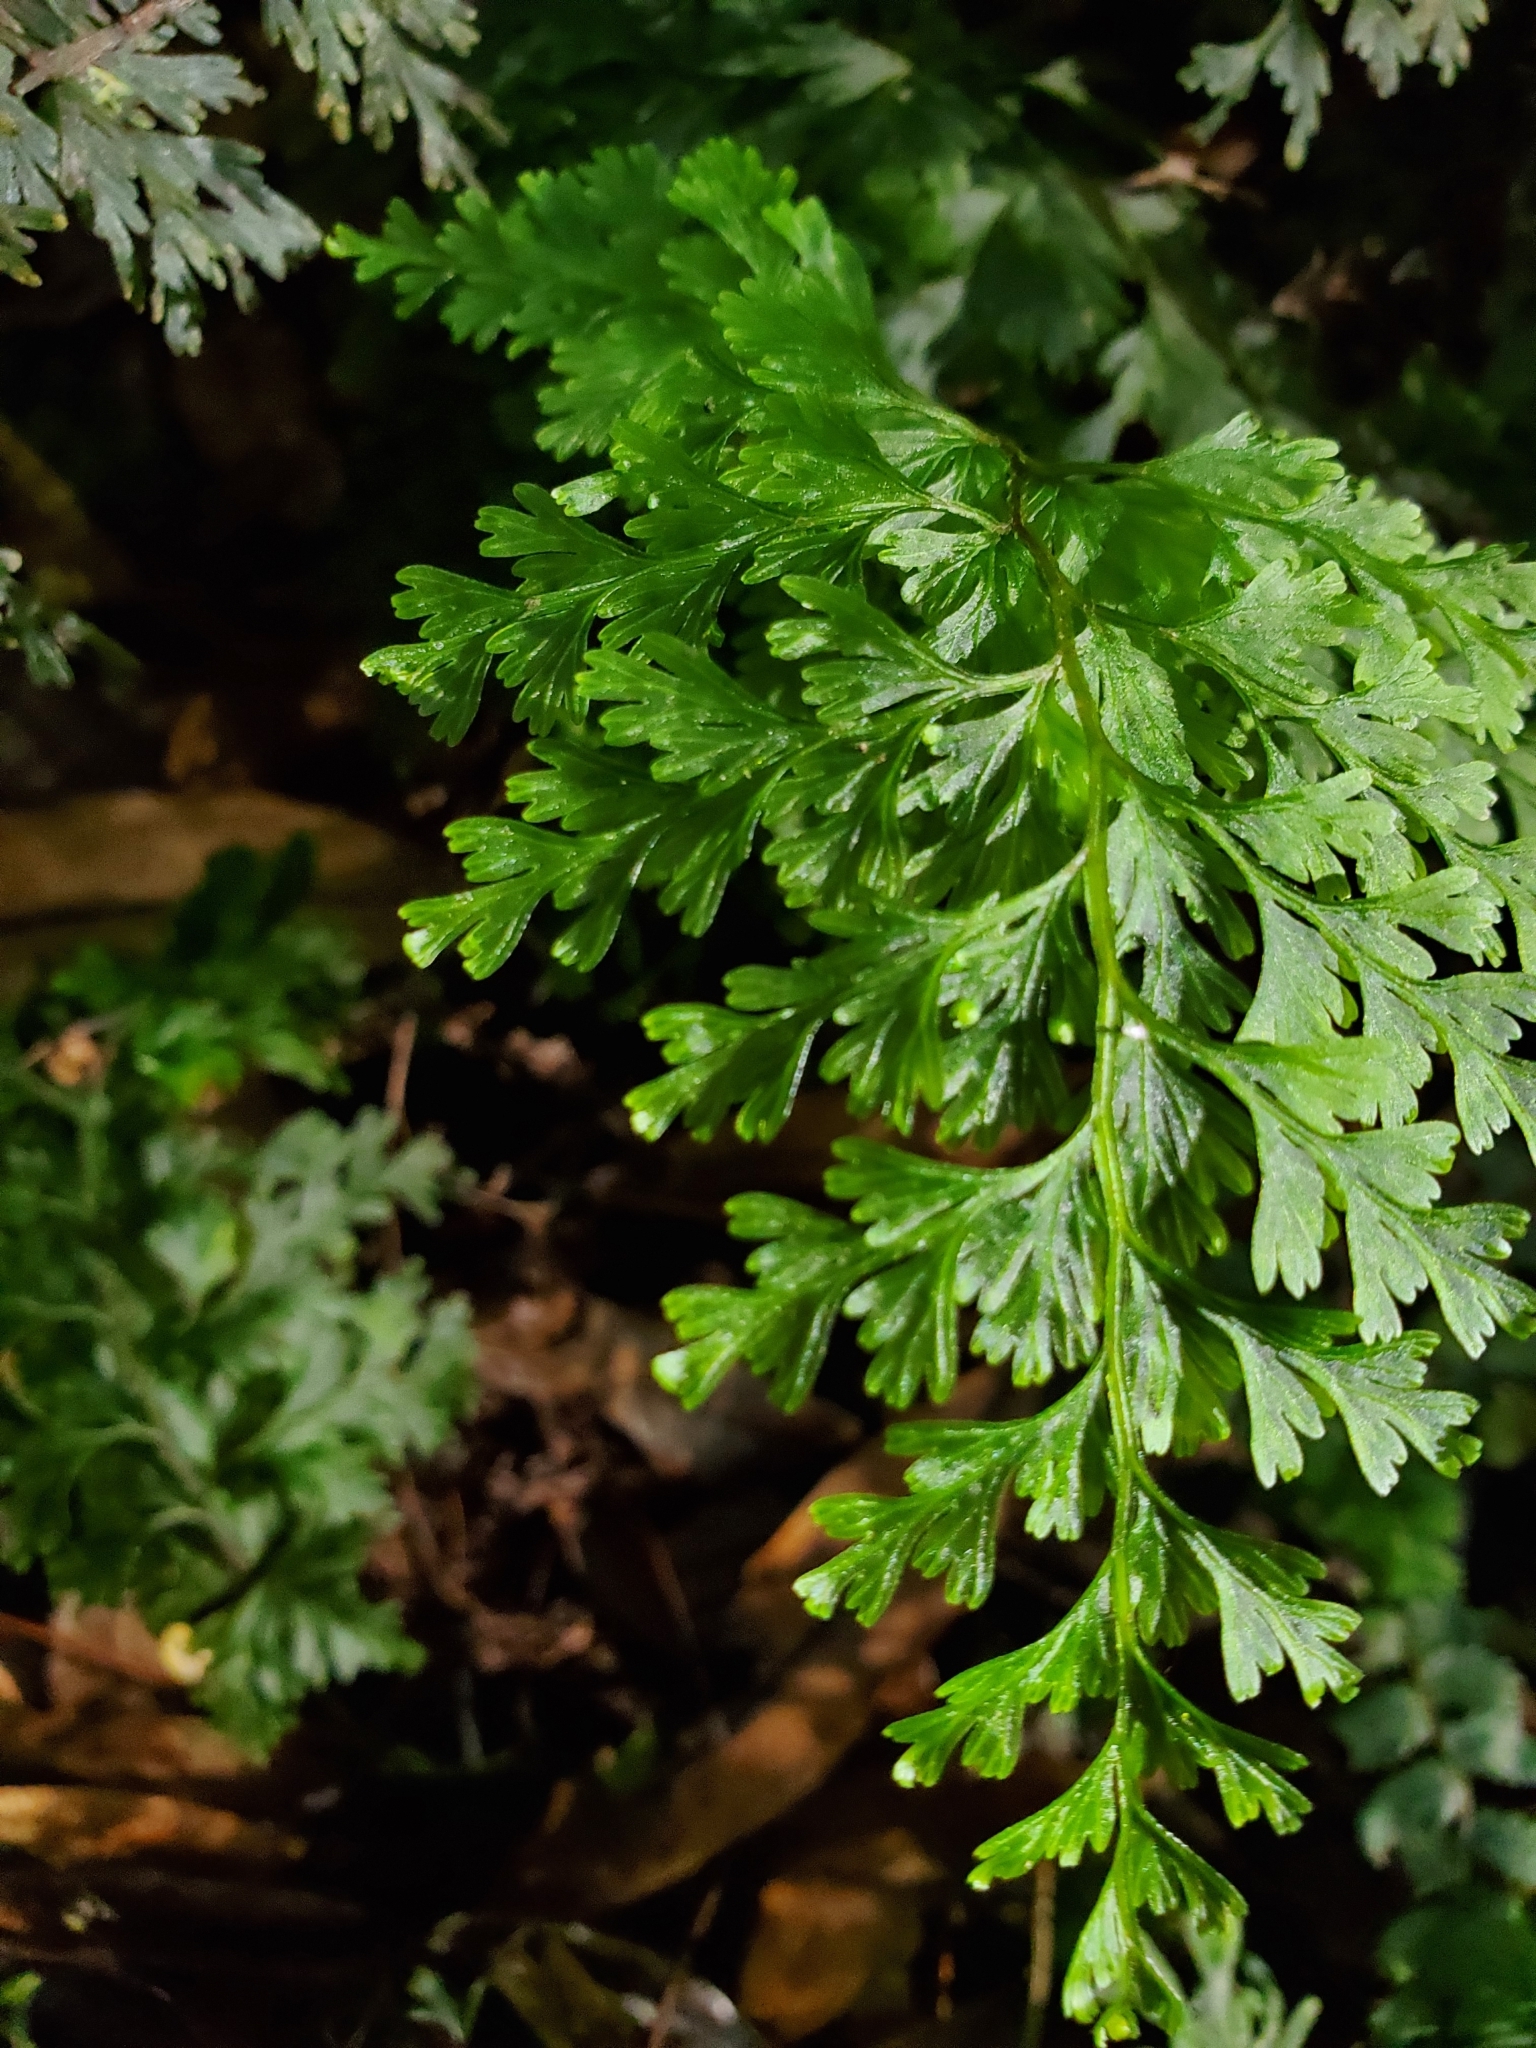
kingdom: Plantae
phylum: Tracheophyta
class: Polypodiopsida
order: Hymenophyllales
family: Hymenophyllaceae
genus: Hymenophyllum
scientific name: Hymenophyllum demissum
